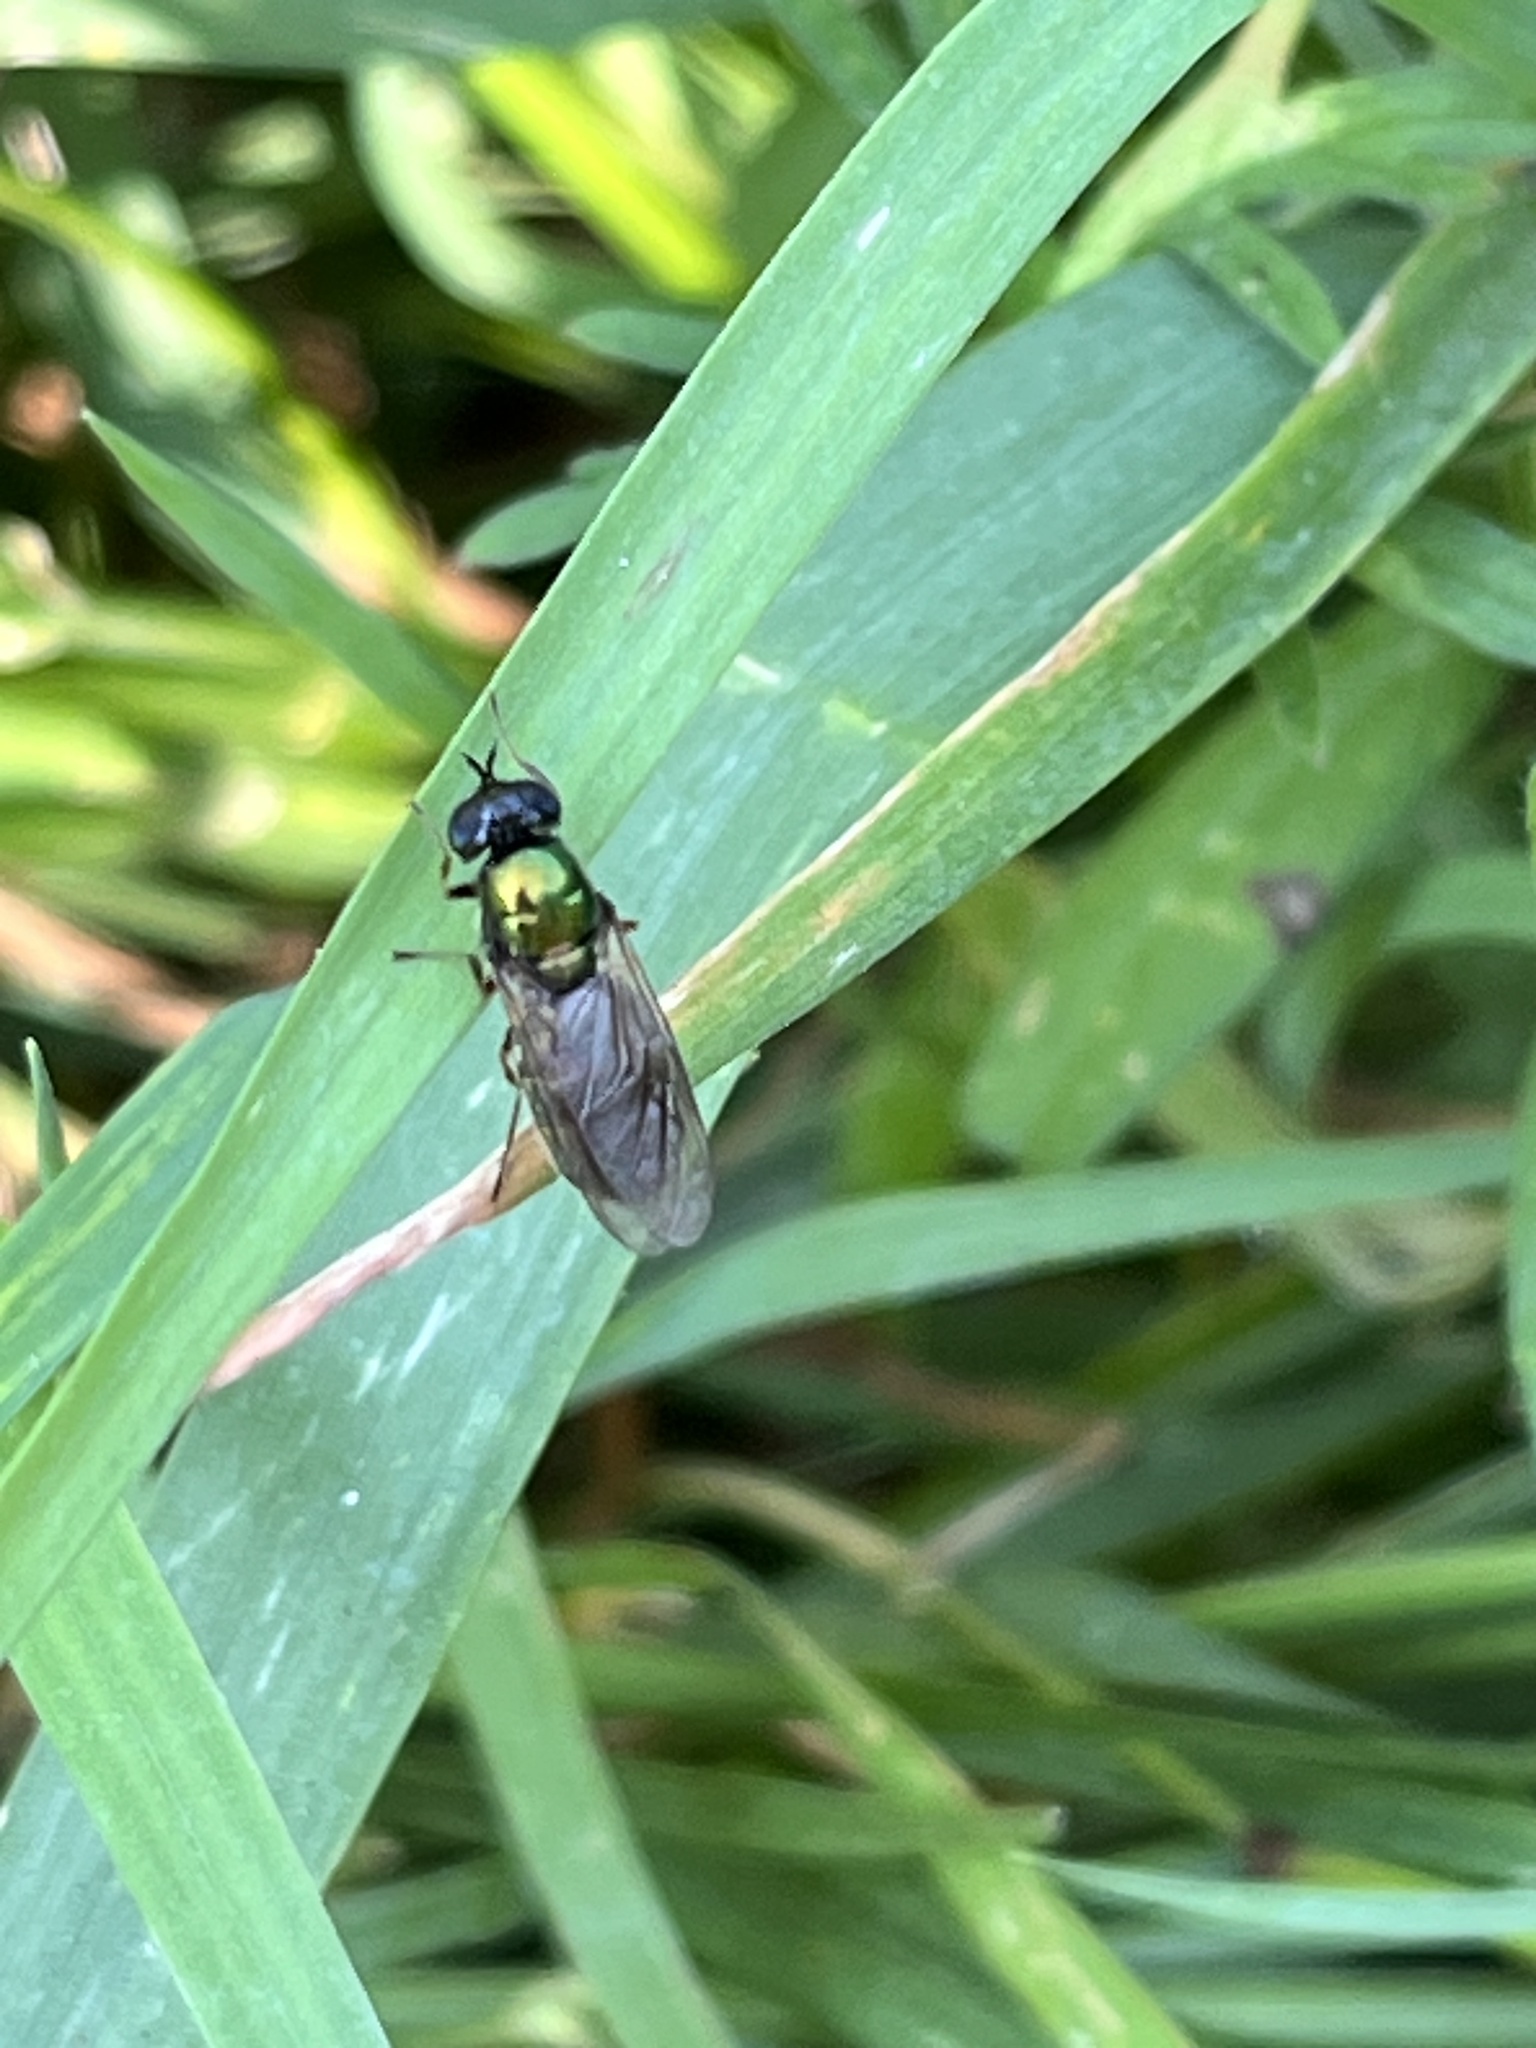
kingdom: Animalia
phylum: Arthropoda
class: Insecta
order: Diptera
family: Stratiomyidae
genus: Chloromyia
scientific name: Chloromyia formosa
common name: Soldier fly
